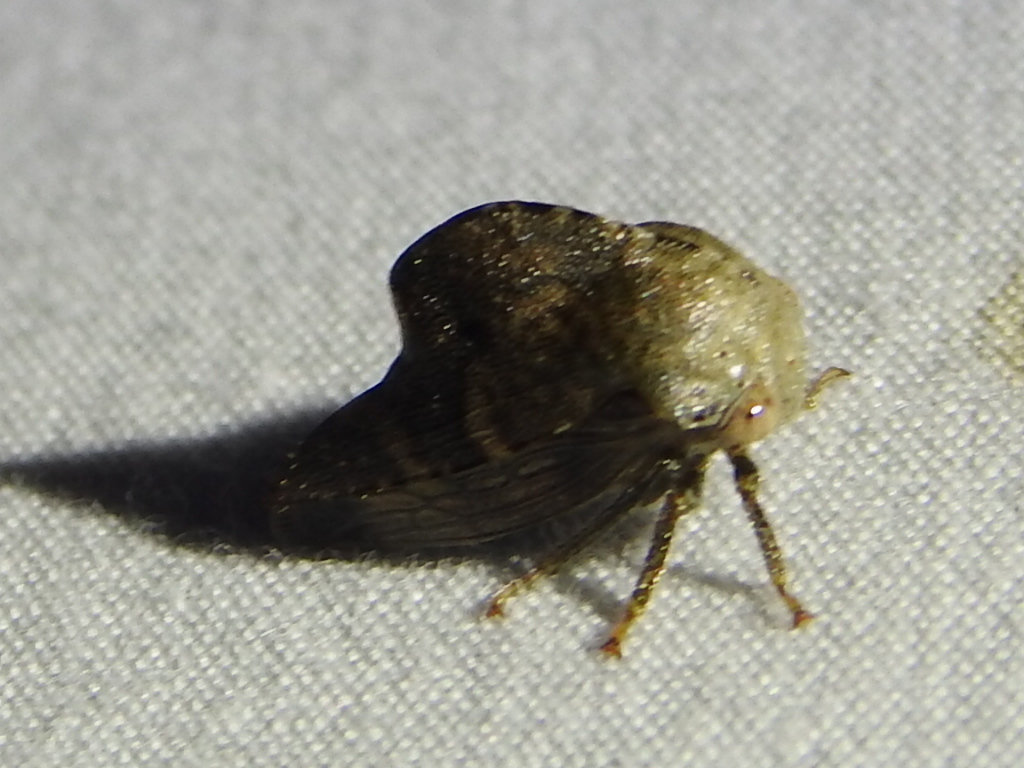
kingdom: Animalia
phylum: Arthropoda
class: Insecta
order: Hemiptera
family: Membracidae
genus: Telamona
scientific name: Telamona reclivata
